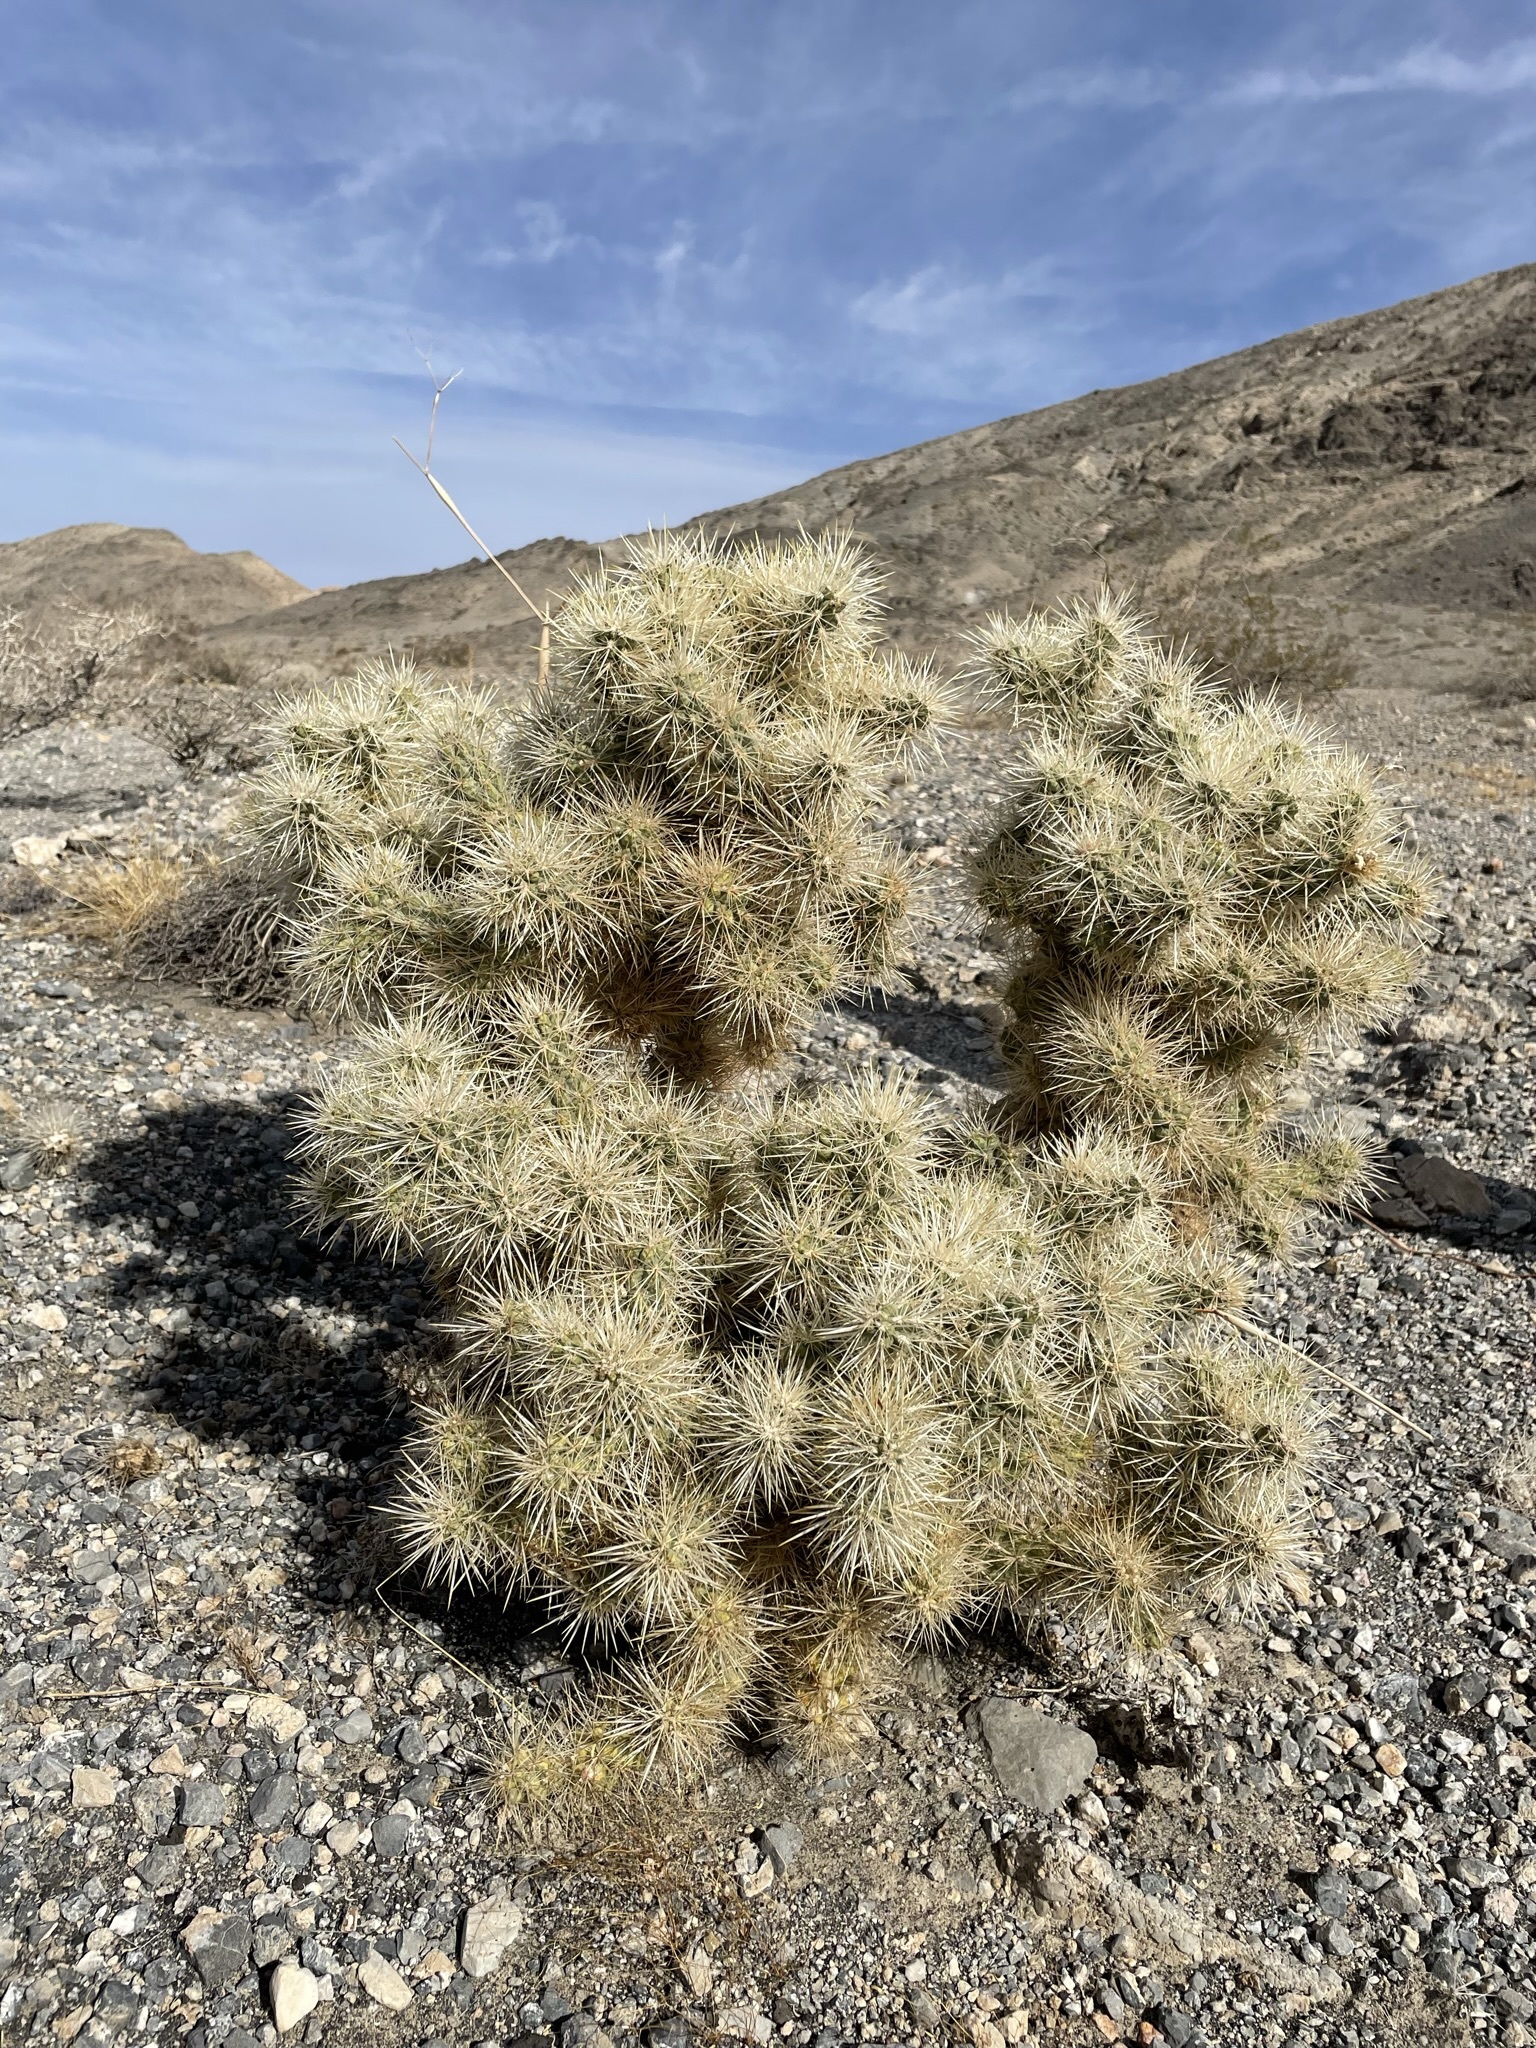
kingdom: Plantae
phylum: Tracheophyta
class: Magnoliopsida
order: Caryophyllales
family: Cactaceae
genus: Cylindropuntia
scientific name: Cylindropuntia echinocarpa
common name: Ground cholla
